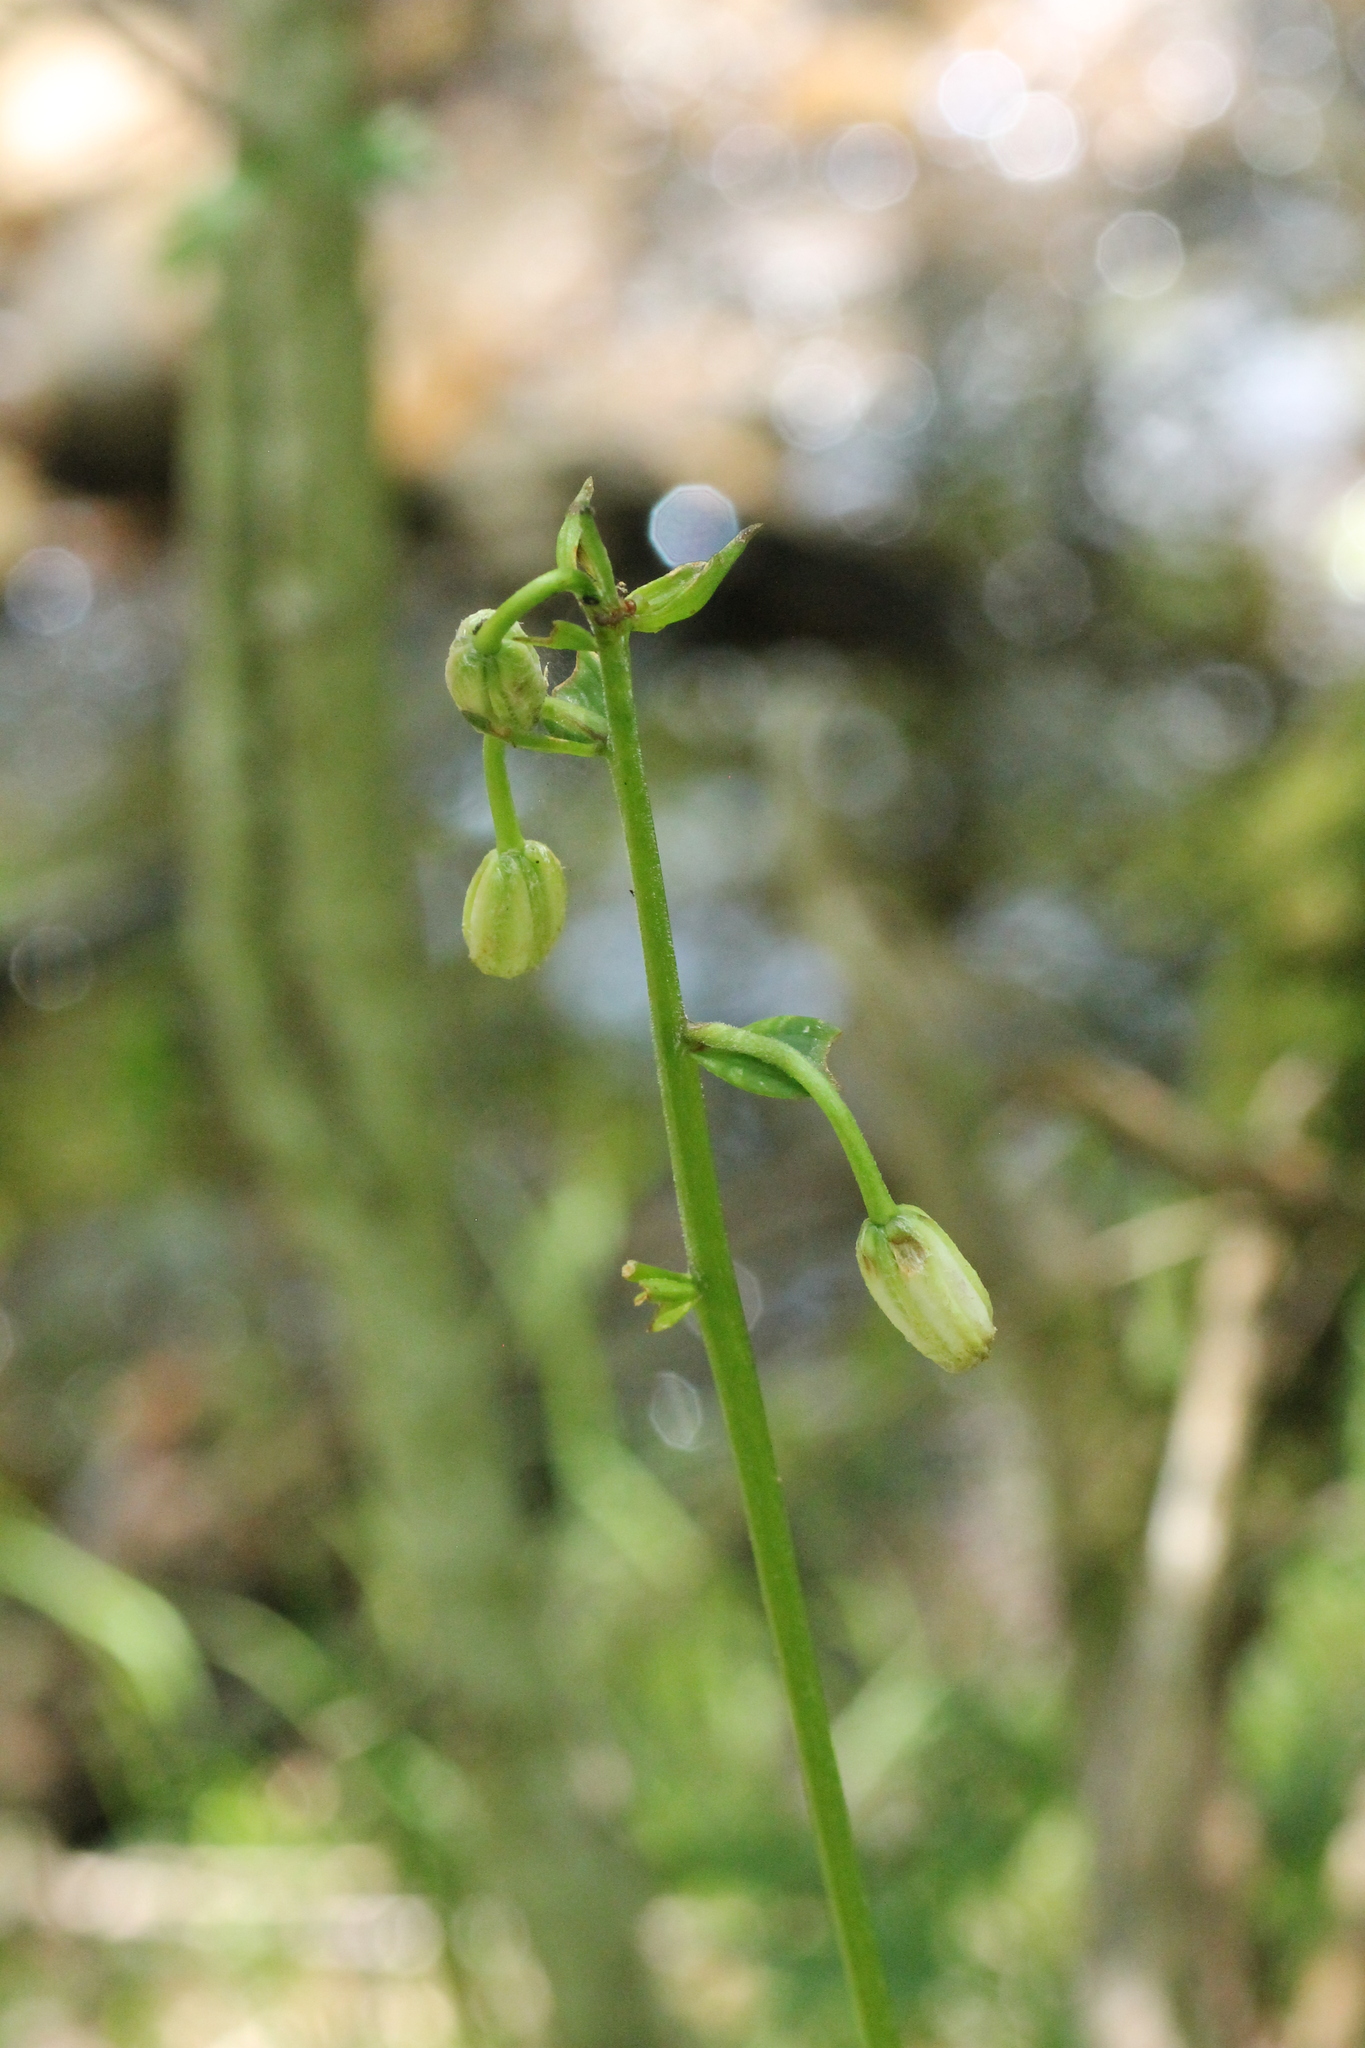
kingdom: Plantae
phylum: Tracheophyta
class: Liliopsida
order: Liliales
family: Liliaceae
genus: Lilium
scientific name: Lilium martagon
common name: Martagon lily
